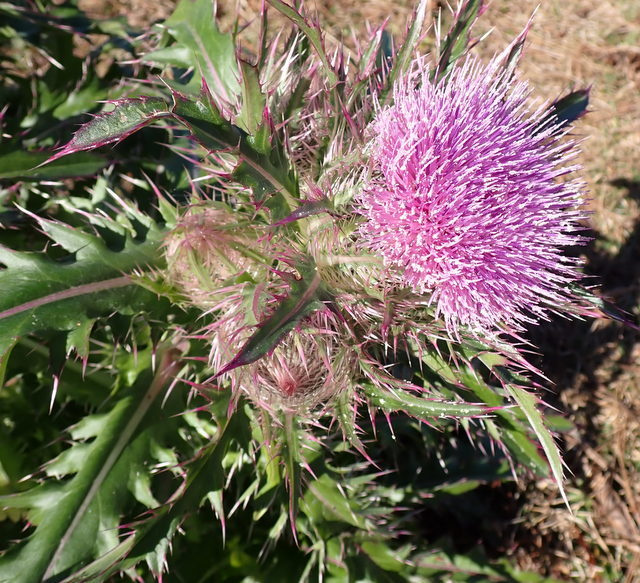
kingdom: Plantae
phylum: Tracheophyta
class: Magnoliopsida
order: Asterales
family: Asteraceae
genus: Cirsium
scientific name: Cirsium horridulum
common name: Bristly thistle
